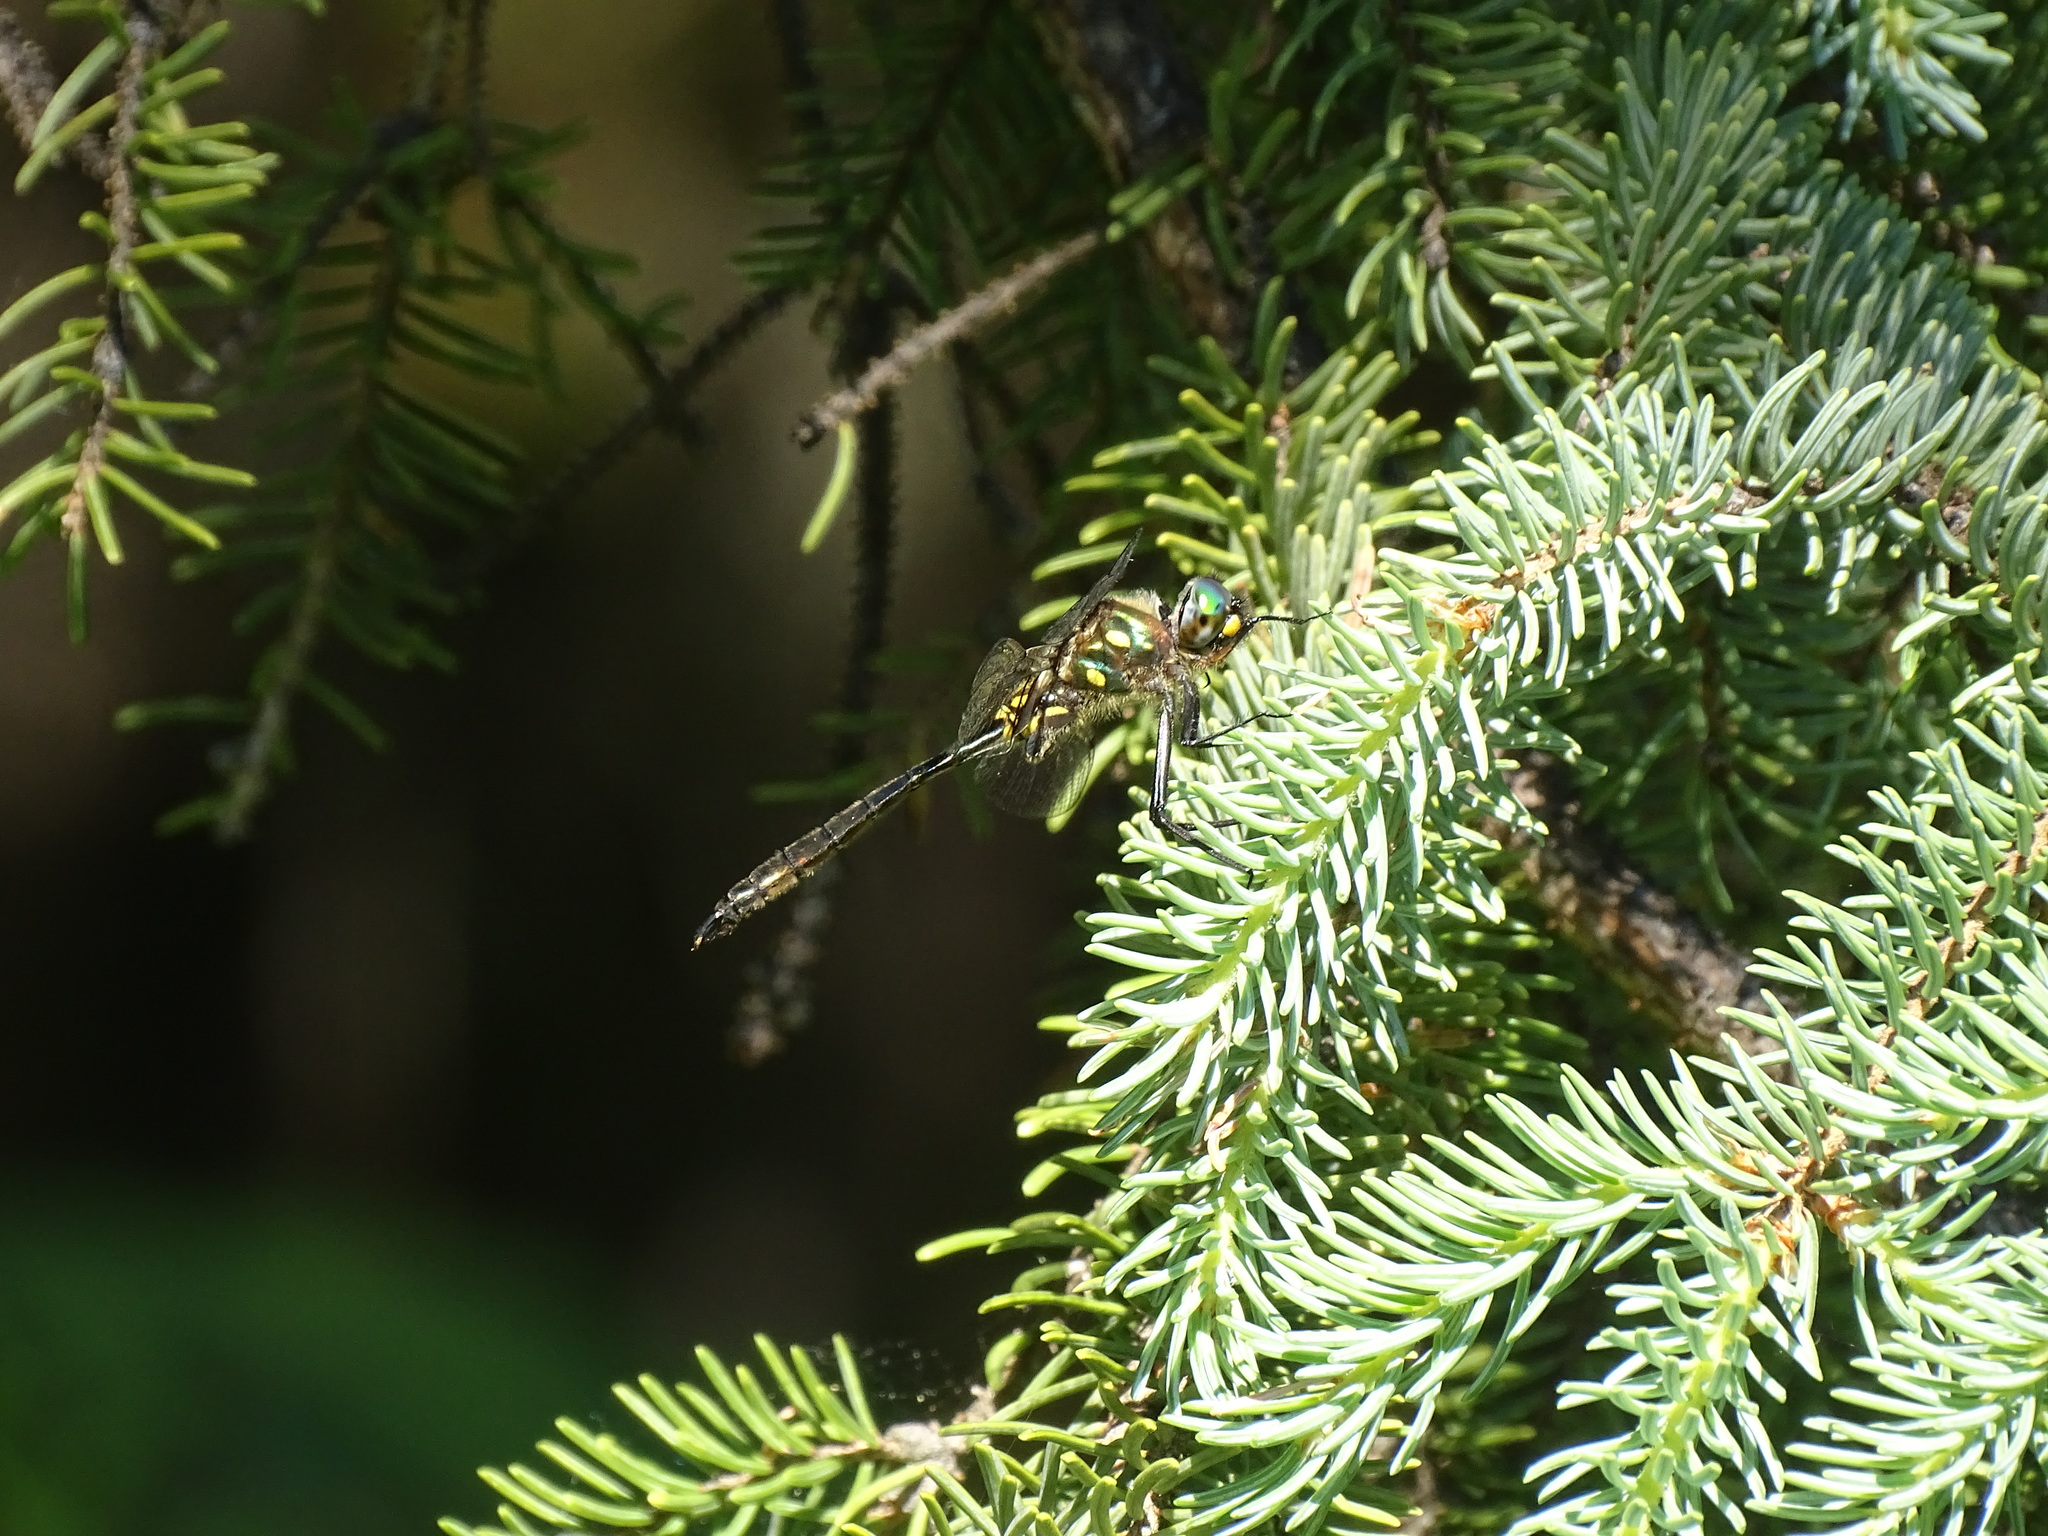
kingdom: Animalia
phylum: Arthropoda
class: Insecta
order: Odonata
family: Corduliidae
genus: Somatochlora
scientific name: Somatochlora minor
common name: Ocellated emerald
